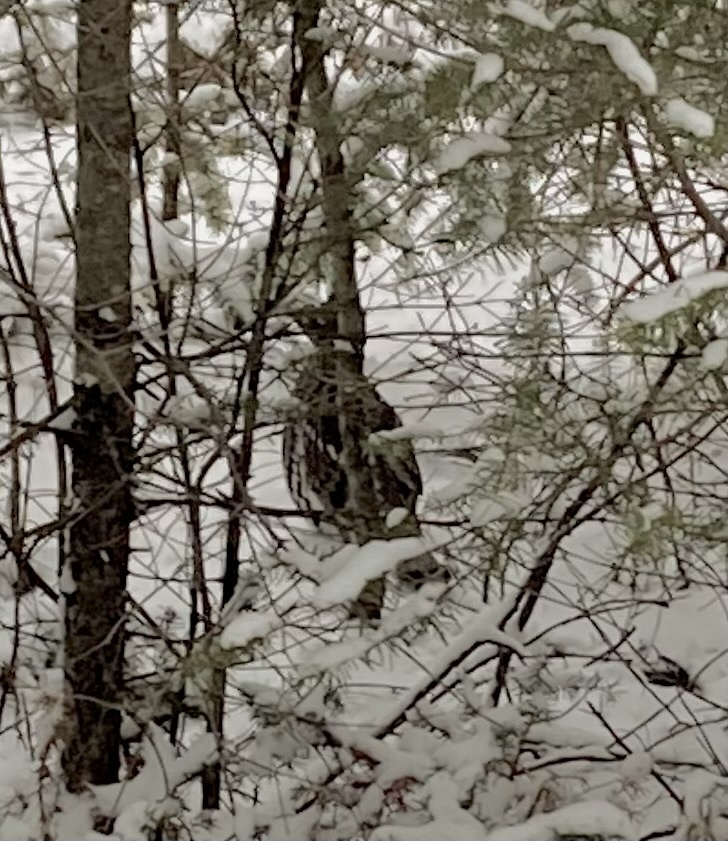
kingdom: Animalia
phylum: Chordata
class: Aves
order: Galliformes
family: Phasianidae
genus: Bonasa
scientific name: Bonasa umbellus
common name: Ruffed grouse
